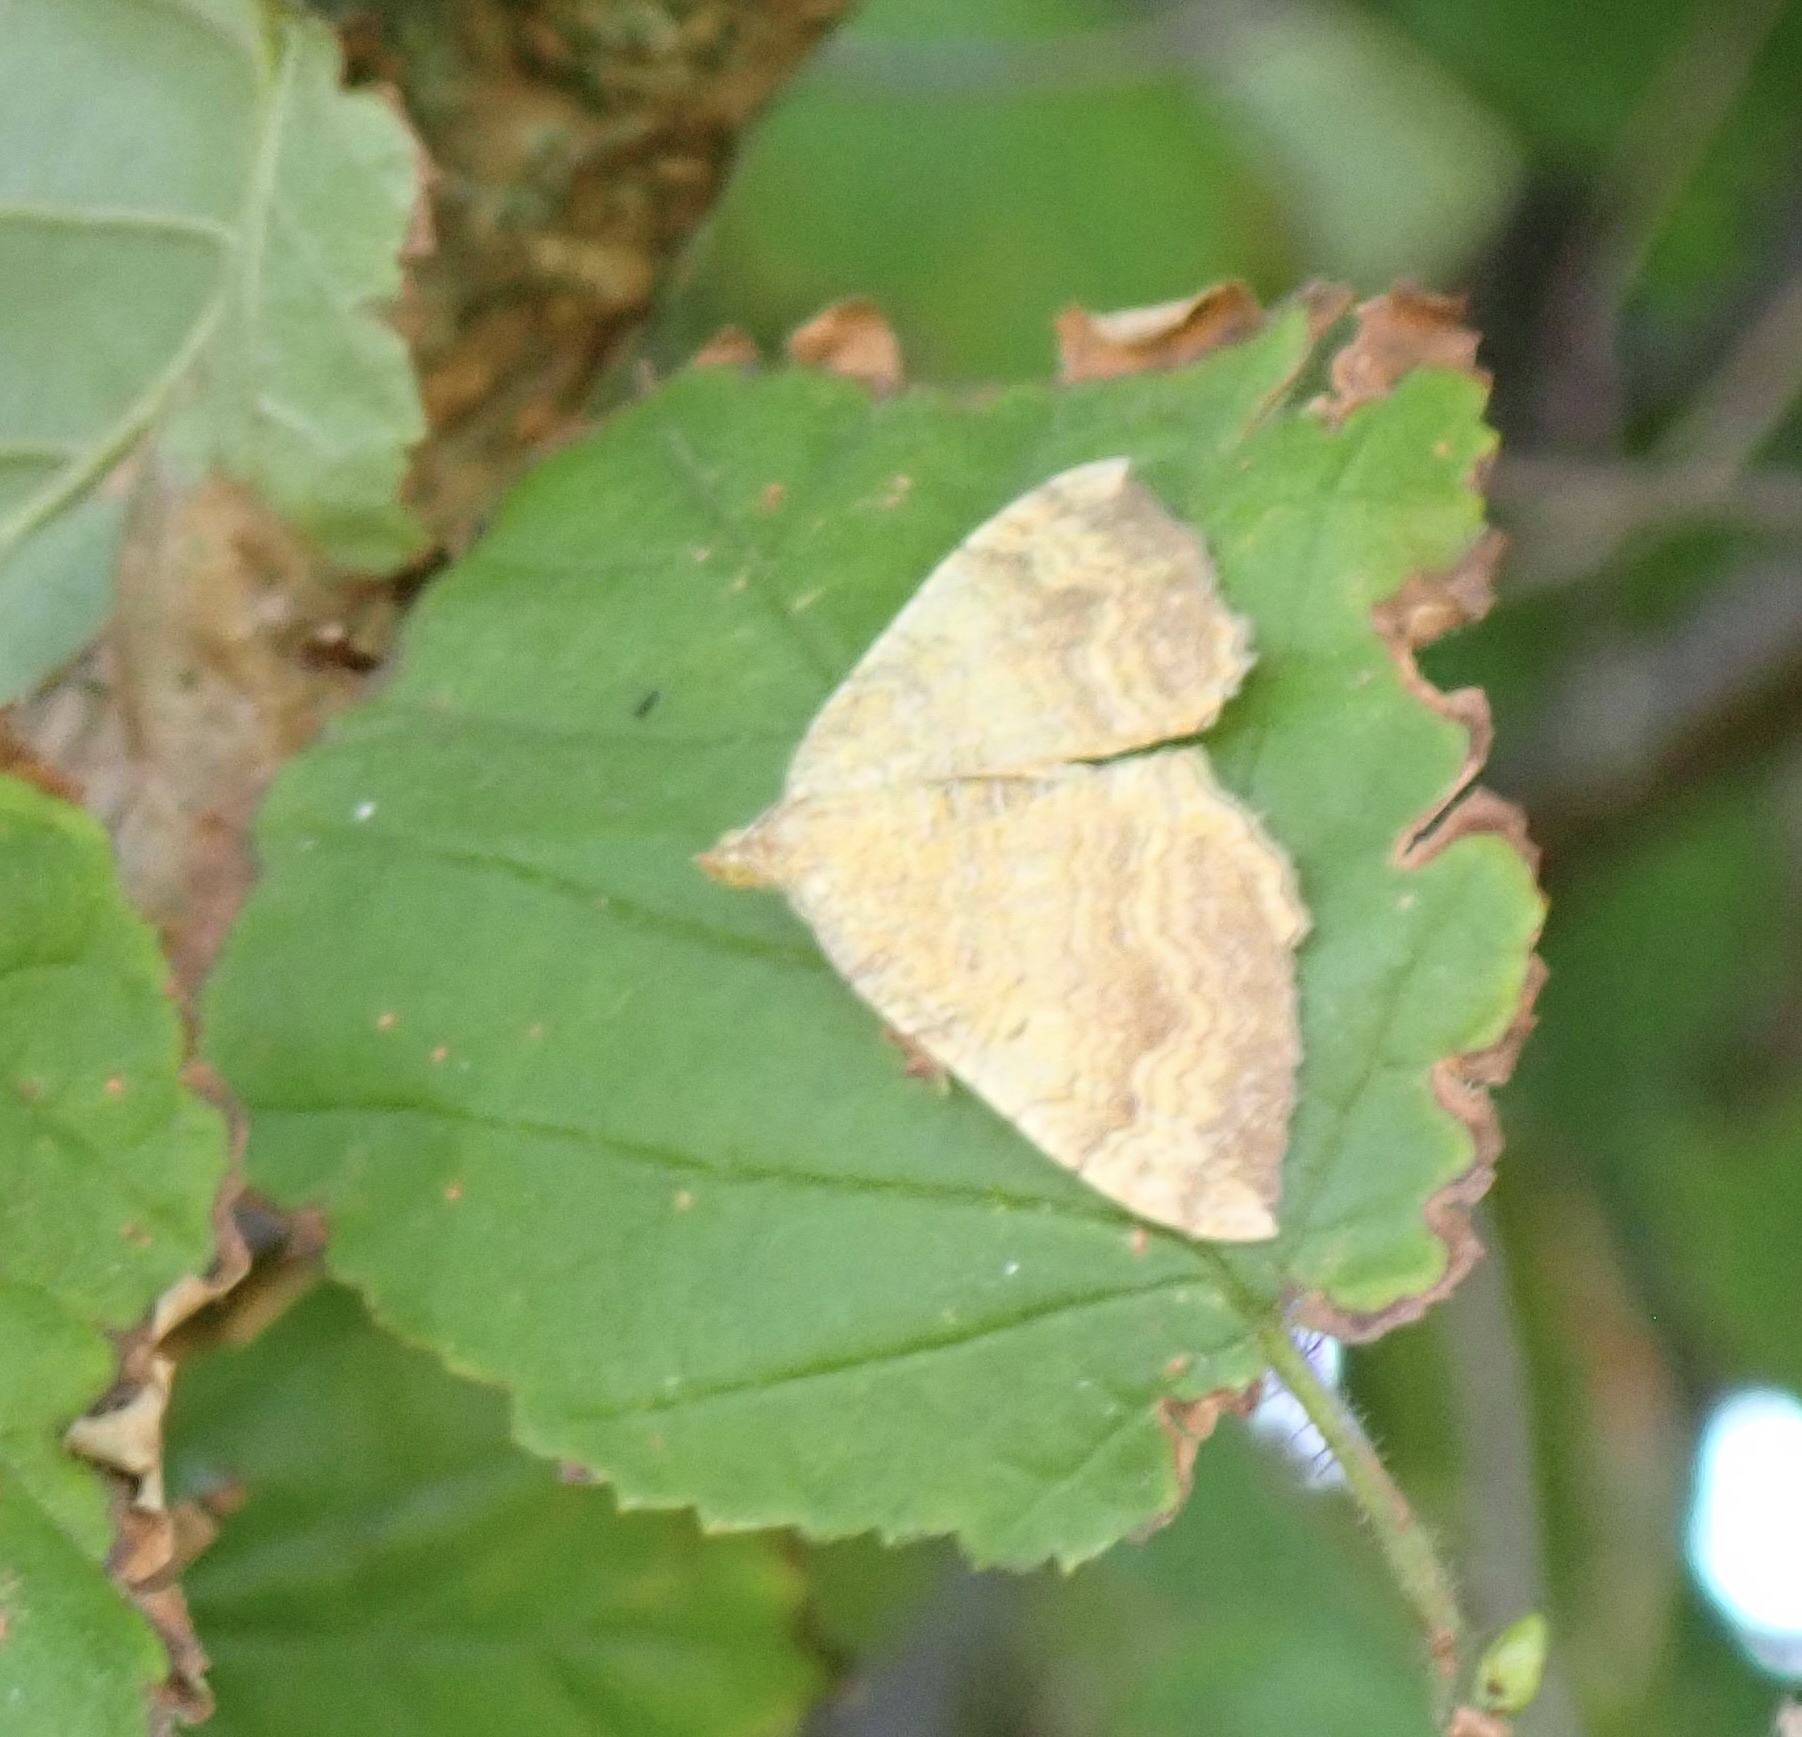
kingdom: Animalia
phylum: Arthropoda
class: Insecta
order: Lepidoptera
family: Geometridae
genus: Camptogramma
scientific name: Camptogramma bilineata
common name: Yellow shell
